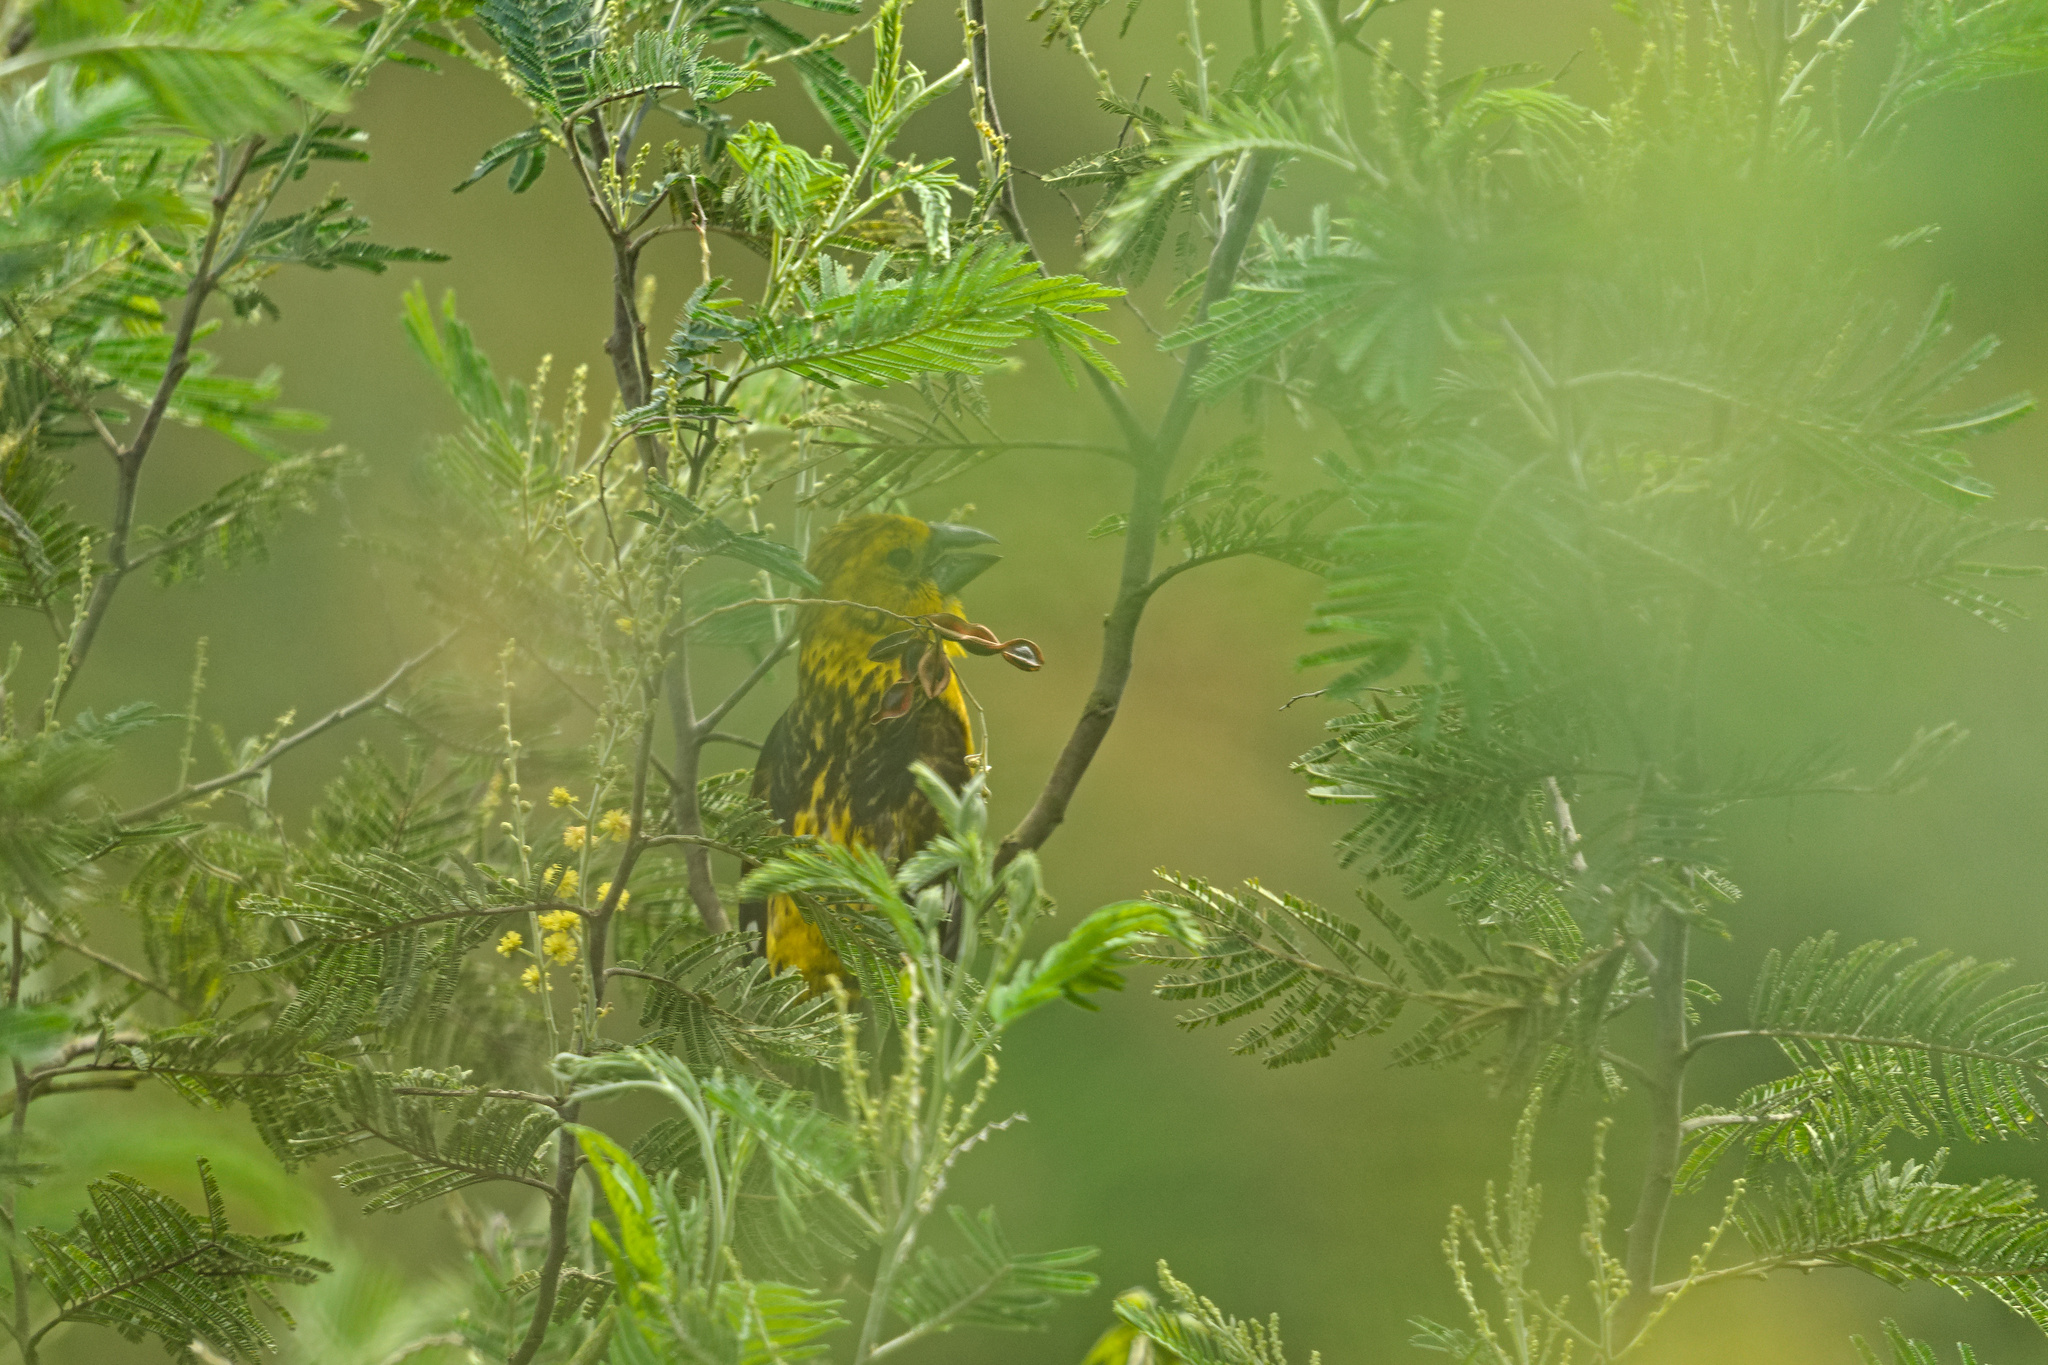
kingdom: Animalia
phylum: Chordata
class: Aves
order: Passeriformes
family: Cardinalidae
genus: Pheucticus
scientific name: Pheucticus chrysogaster
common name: Golden grosbeak
